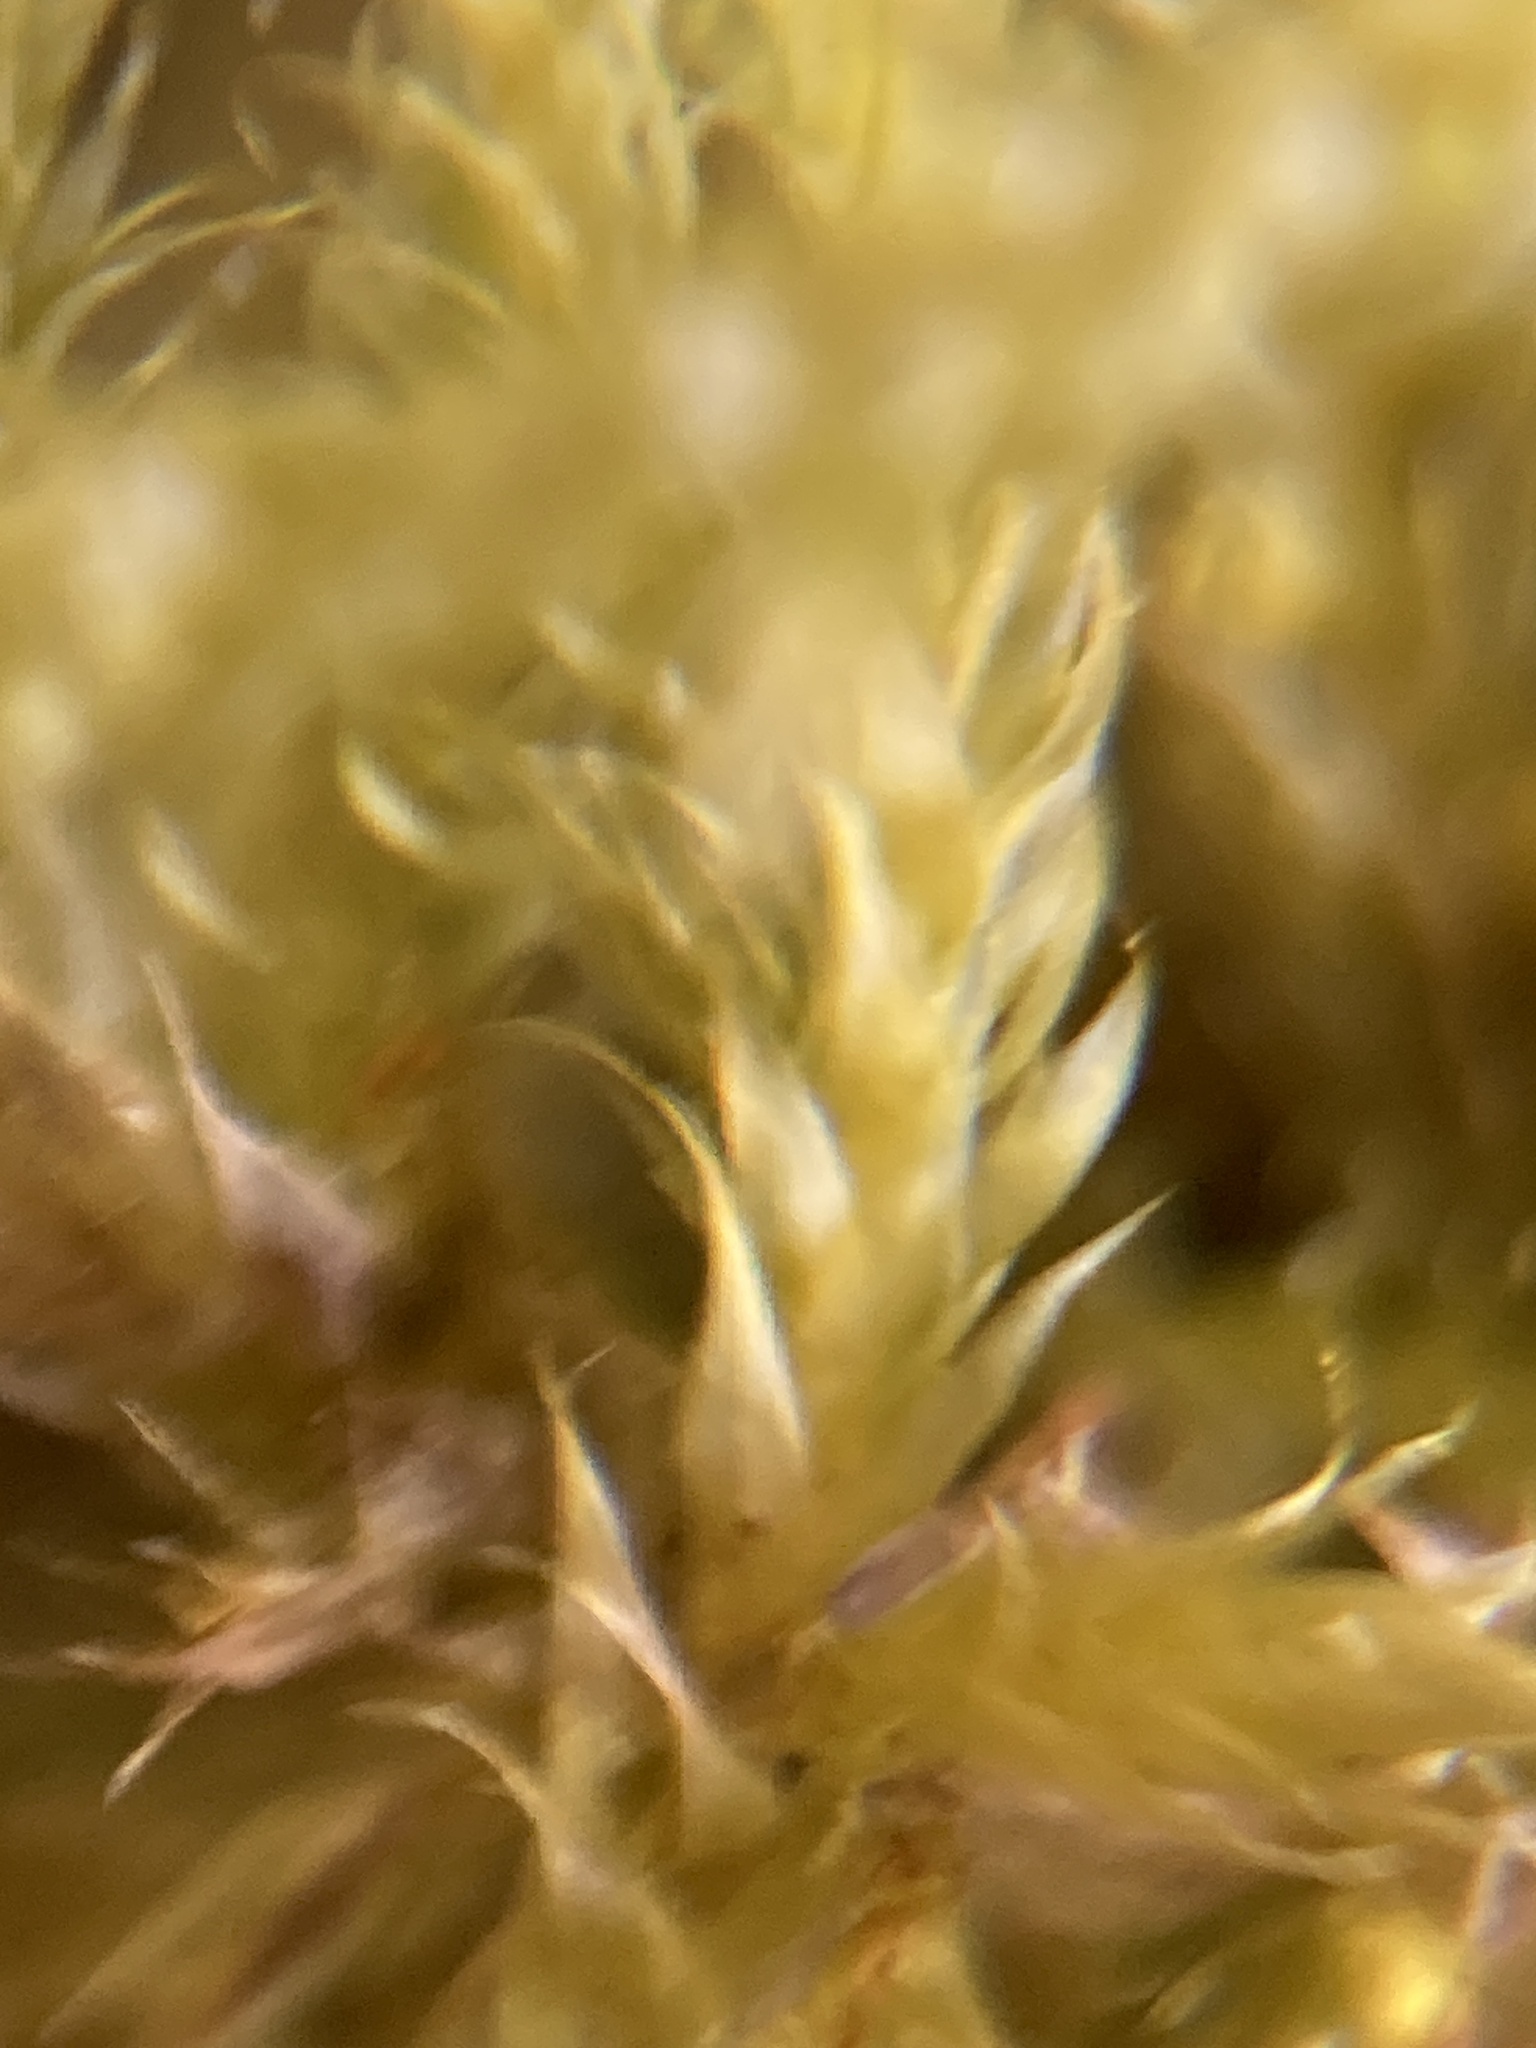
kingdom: Plantae
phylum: Bryophyta
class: Bryopsida
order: Hypnales
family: Hypnaceae
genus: Hypnum
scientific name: Hypnum cupressiforme
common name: Cypress-leaved plait-moss
